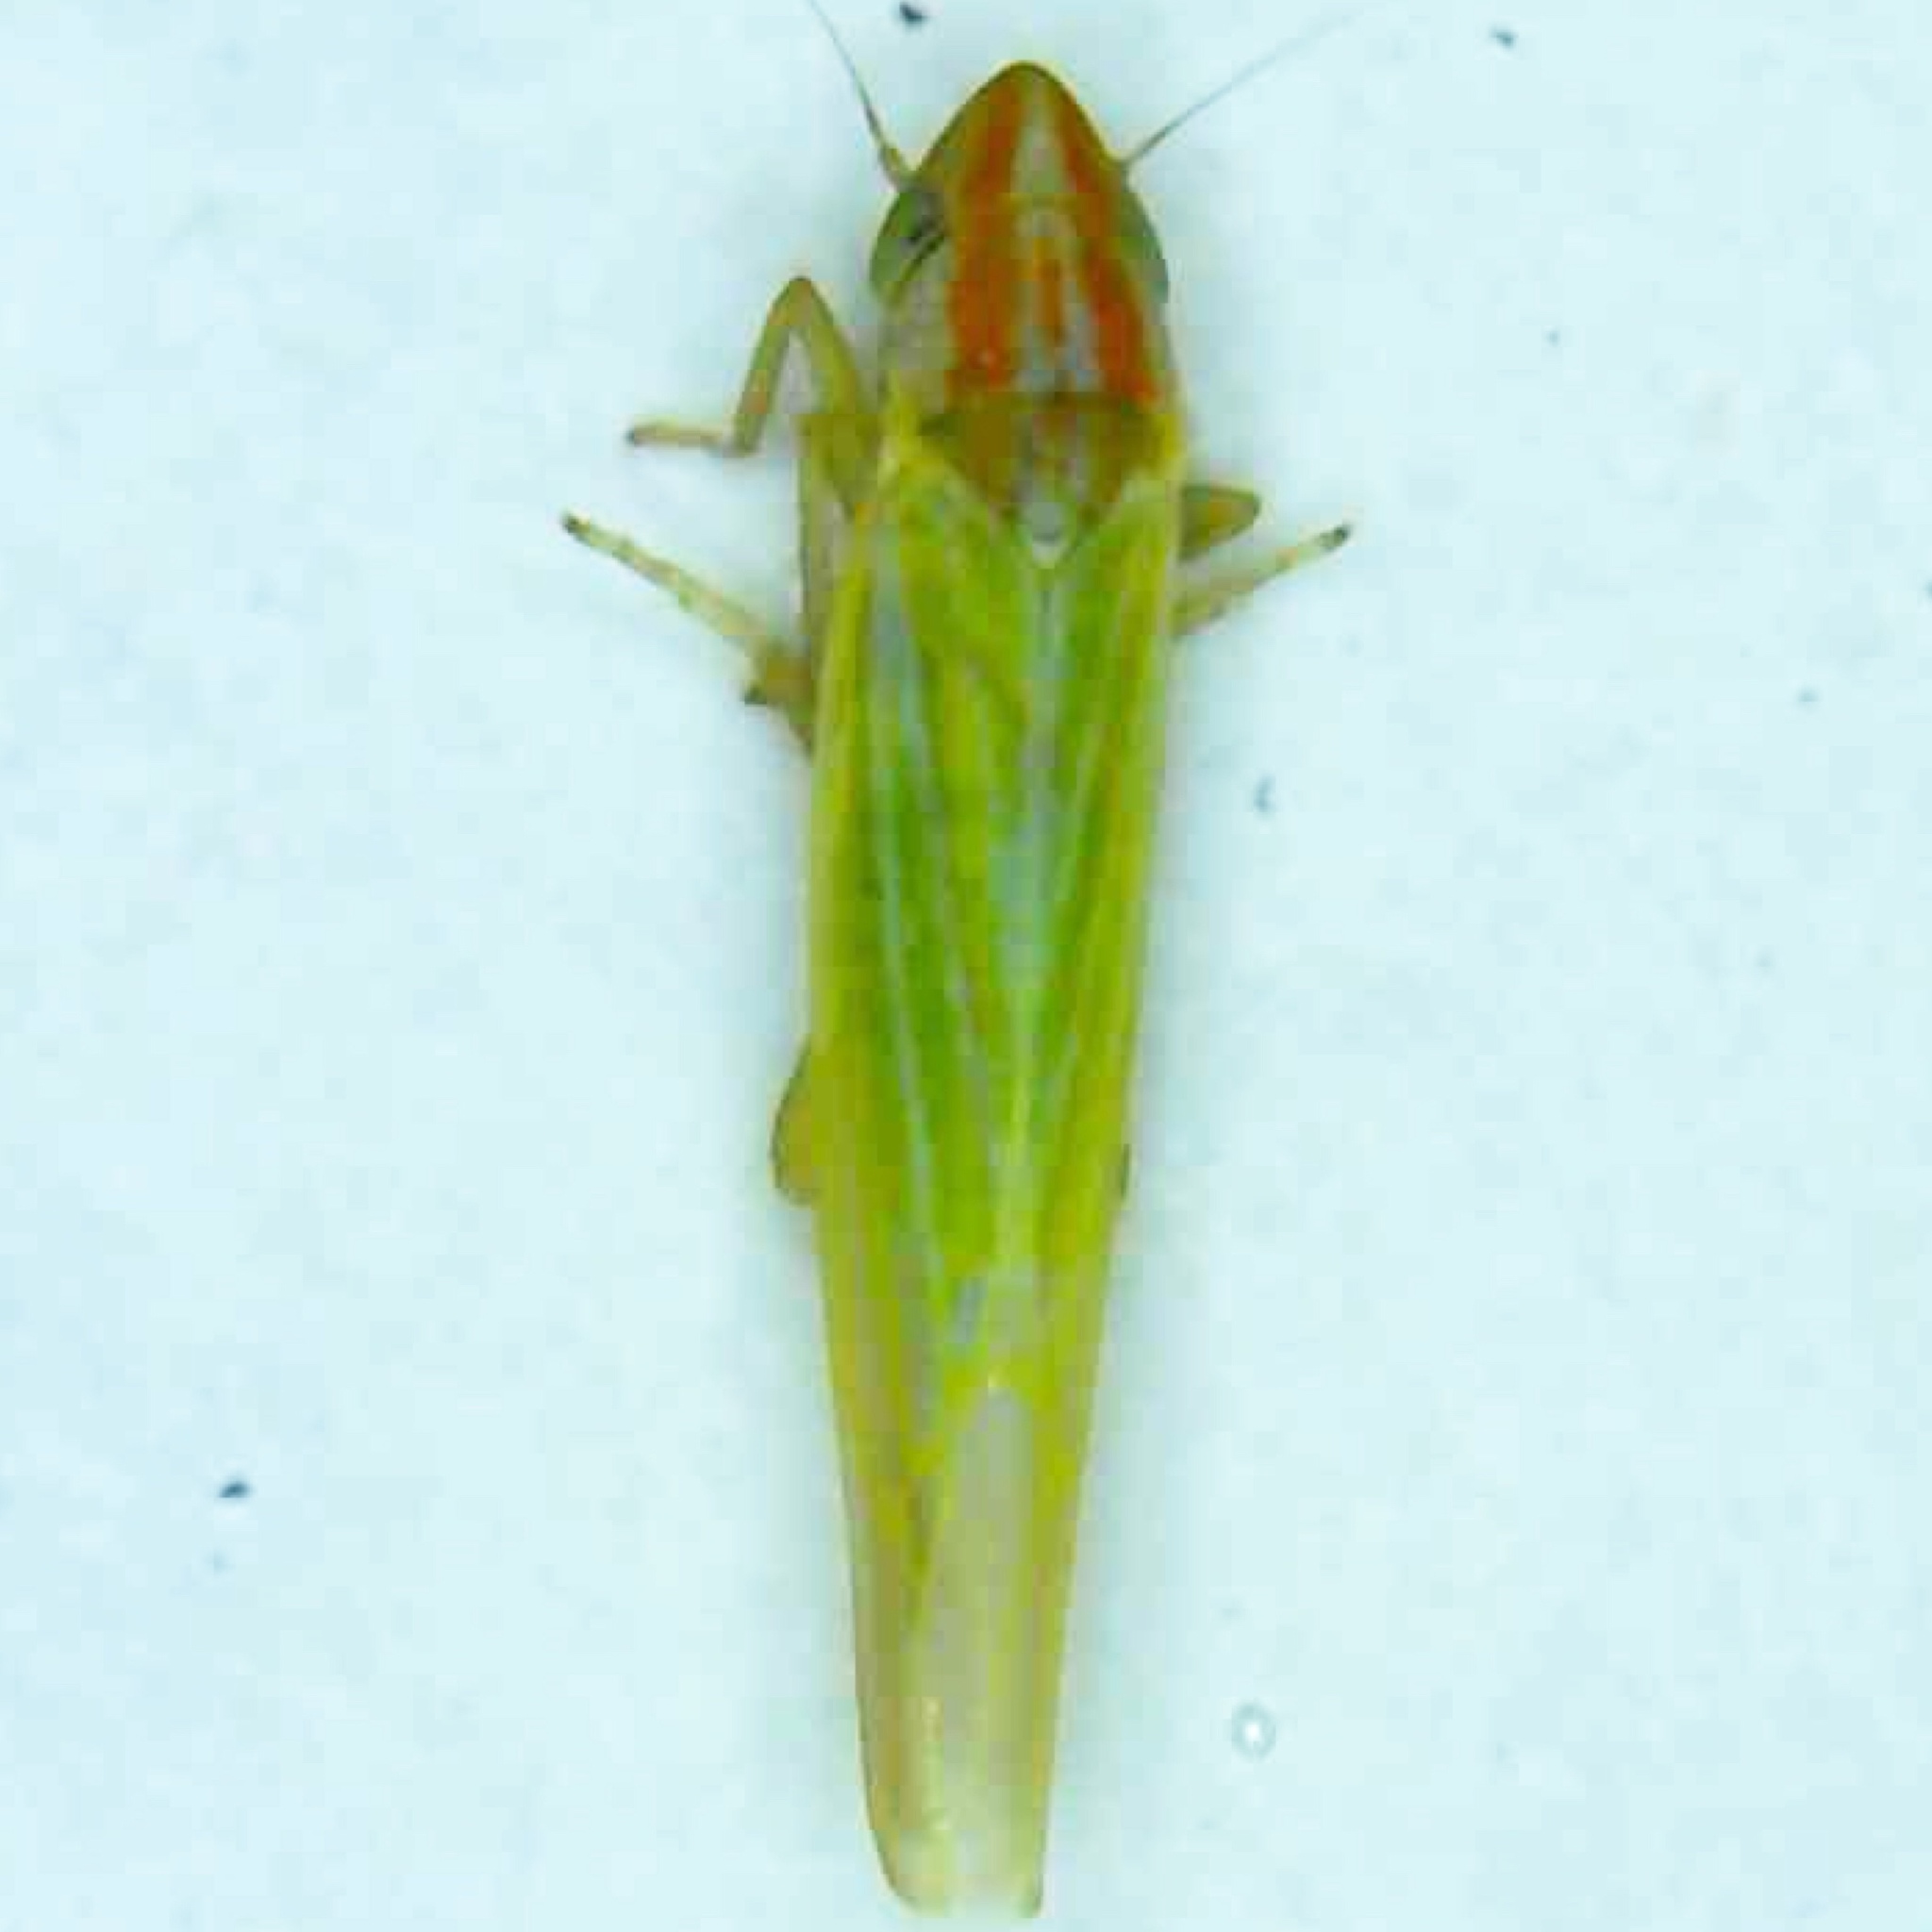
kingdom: Animalia
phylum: Arthropoda
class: Insecta
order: Hemiptera
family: Cicadellidae
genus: Dikraneura
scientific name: Dikraneura angustata
